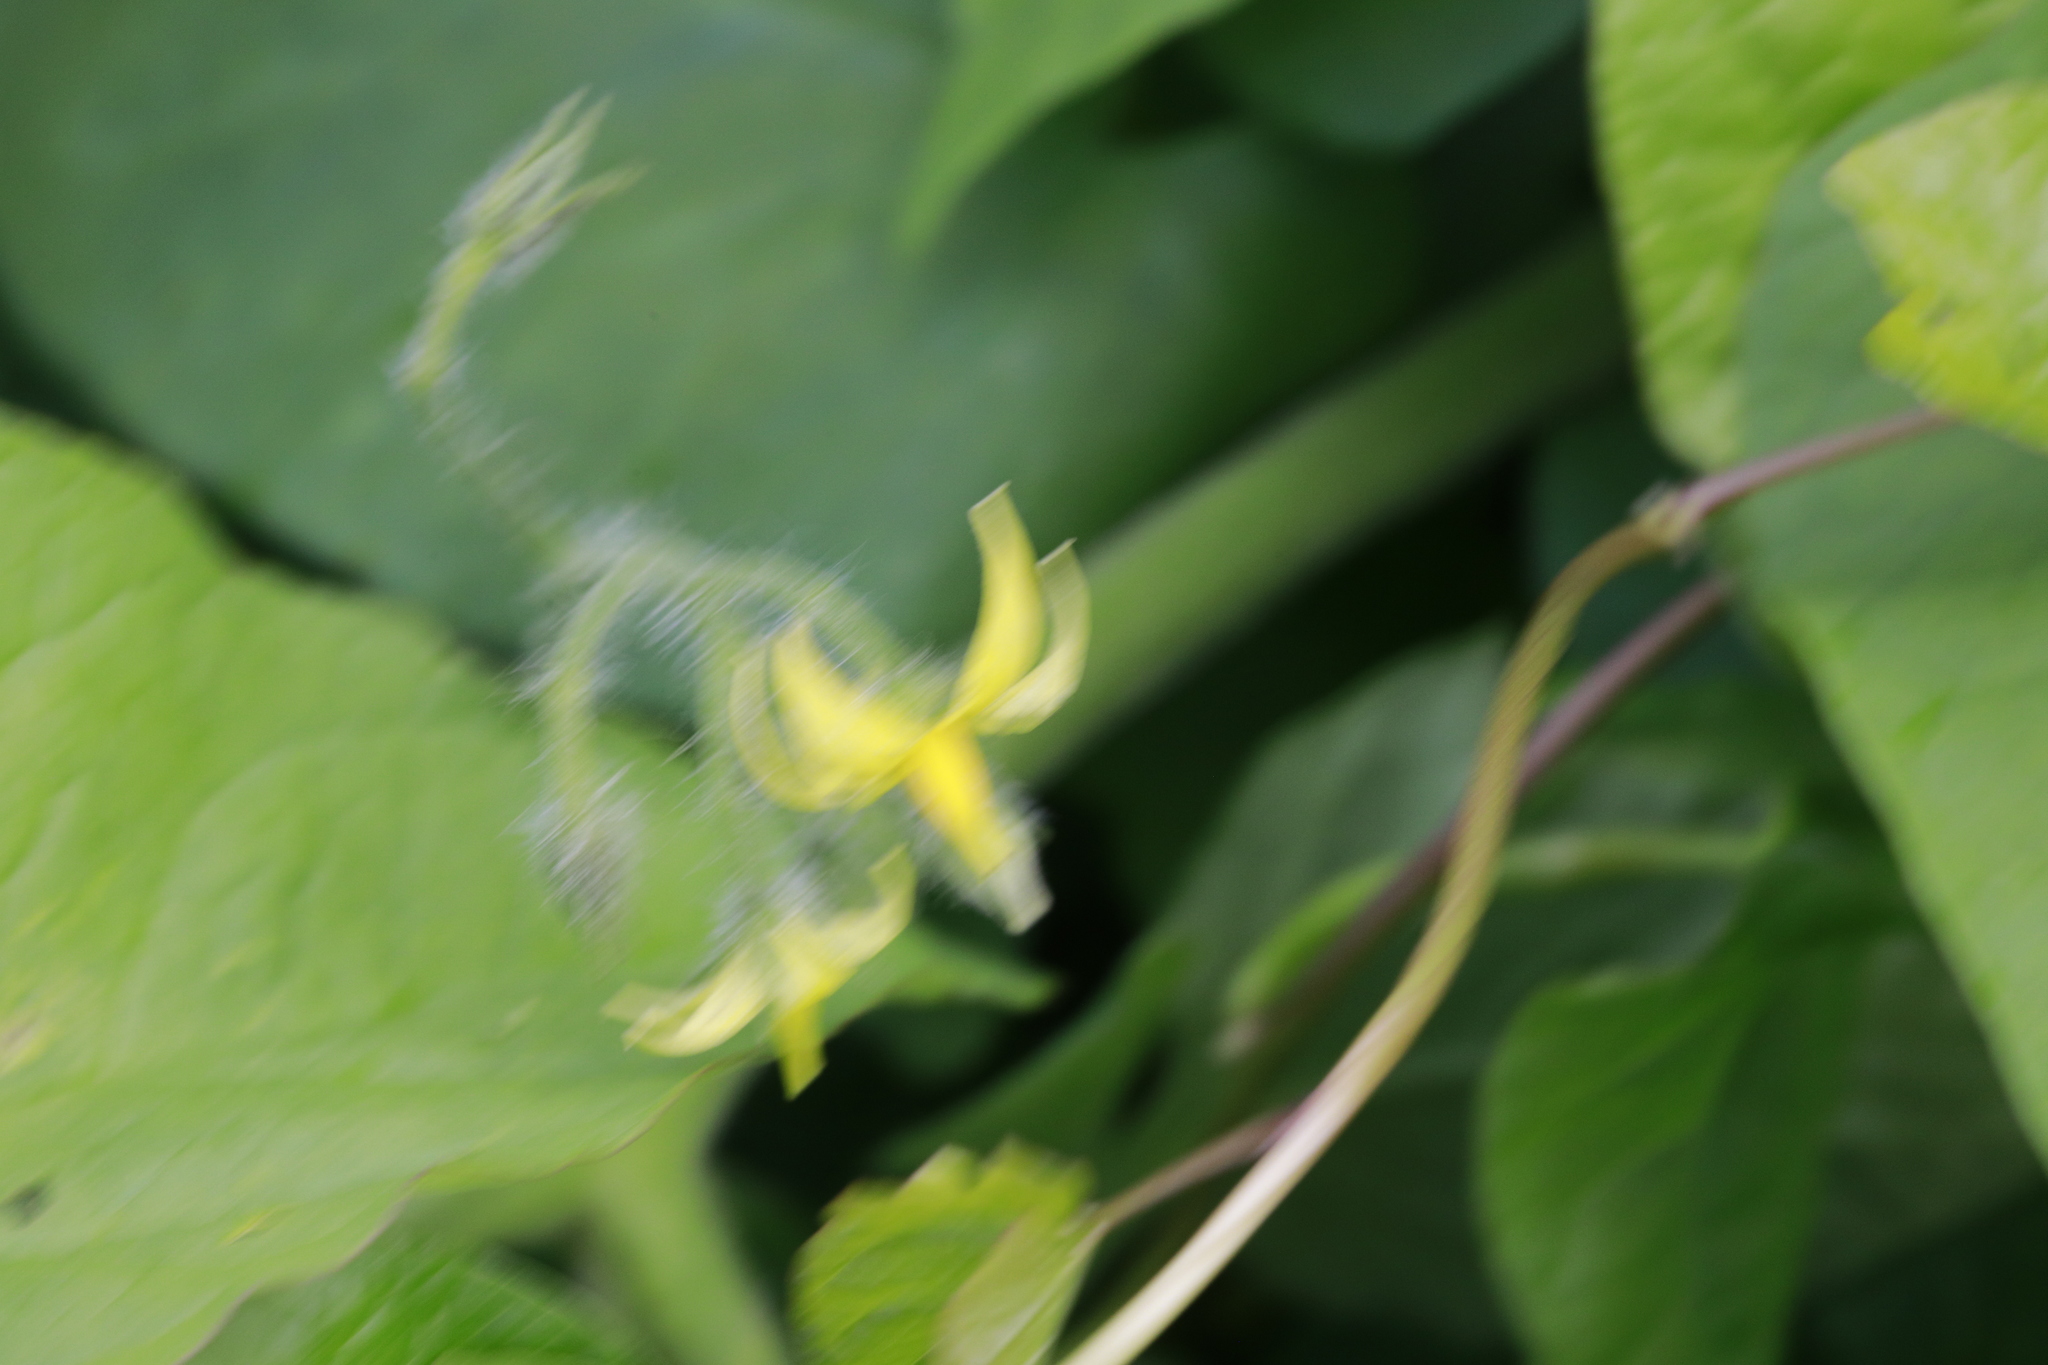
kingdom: Plantae
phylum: Tracheophyta
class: Magnoliopsida
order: Solanales
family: Solanaceae
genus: Solanum
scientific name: Solanum lycopersicum
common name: Garden tomato
